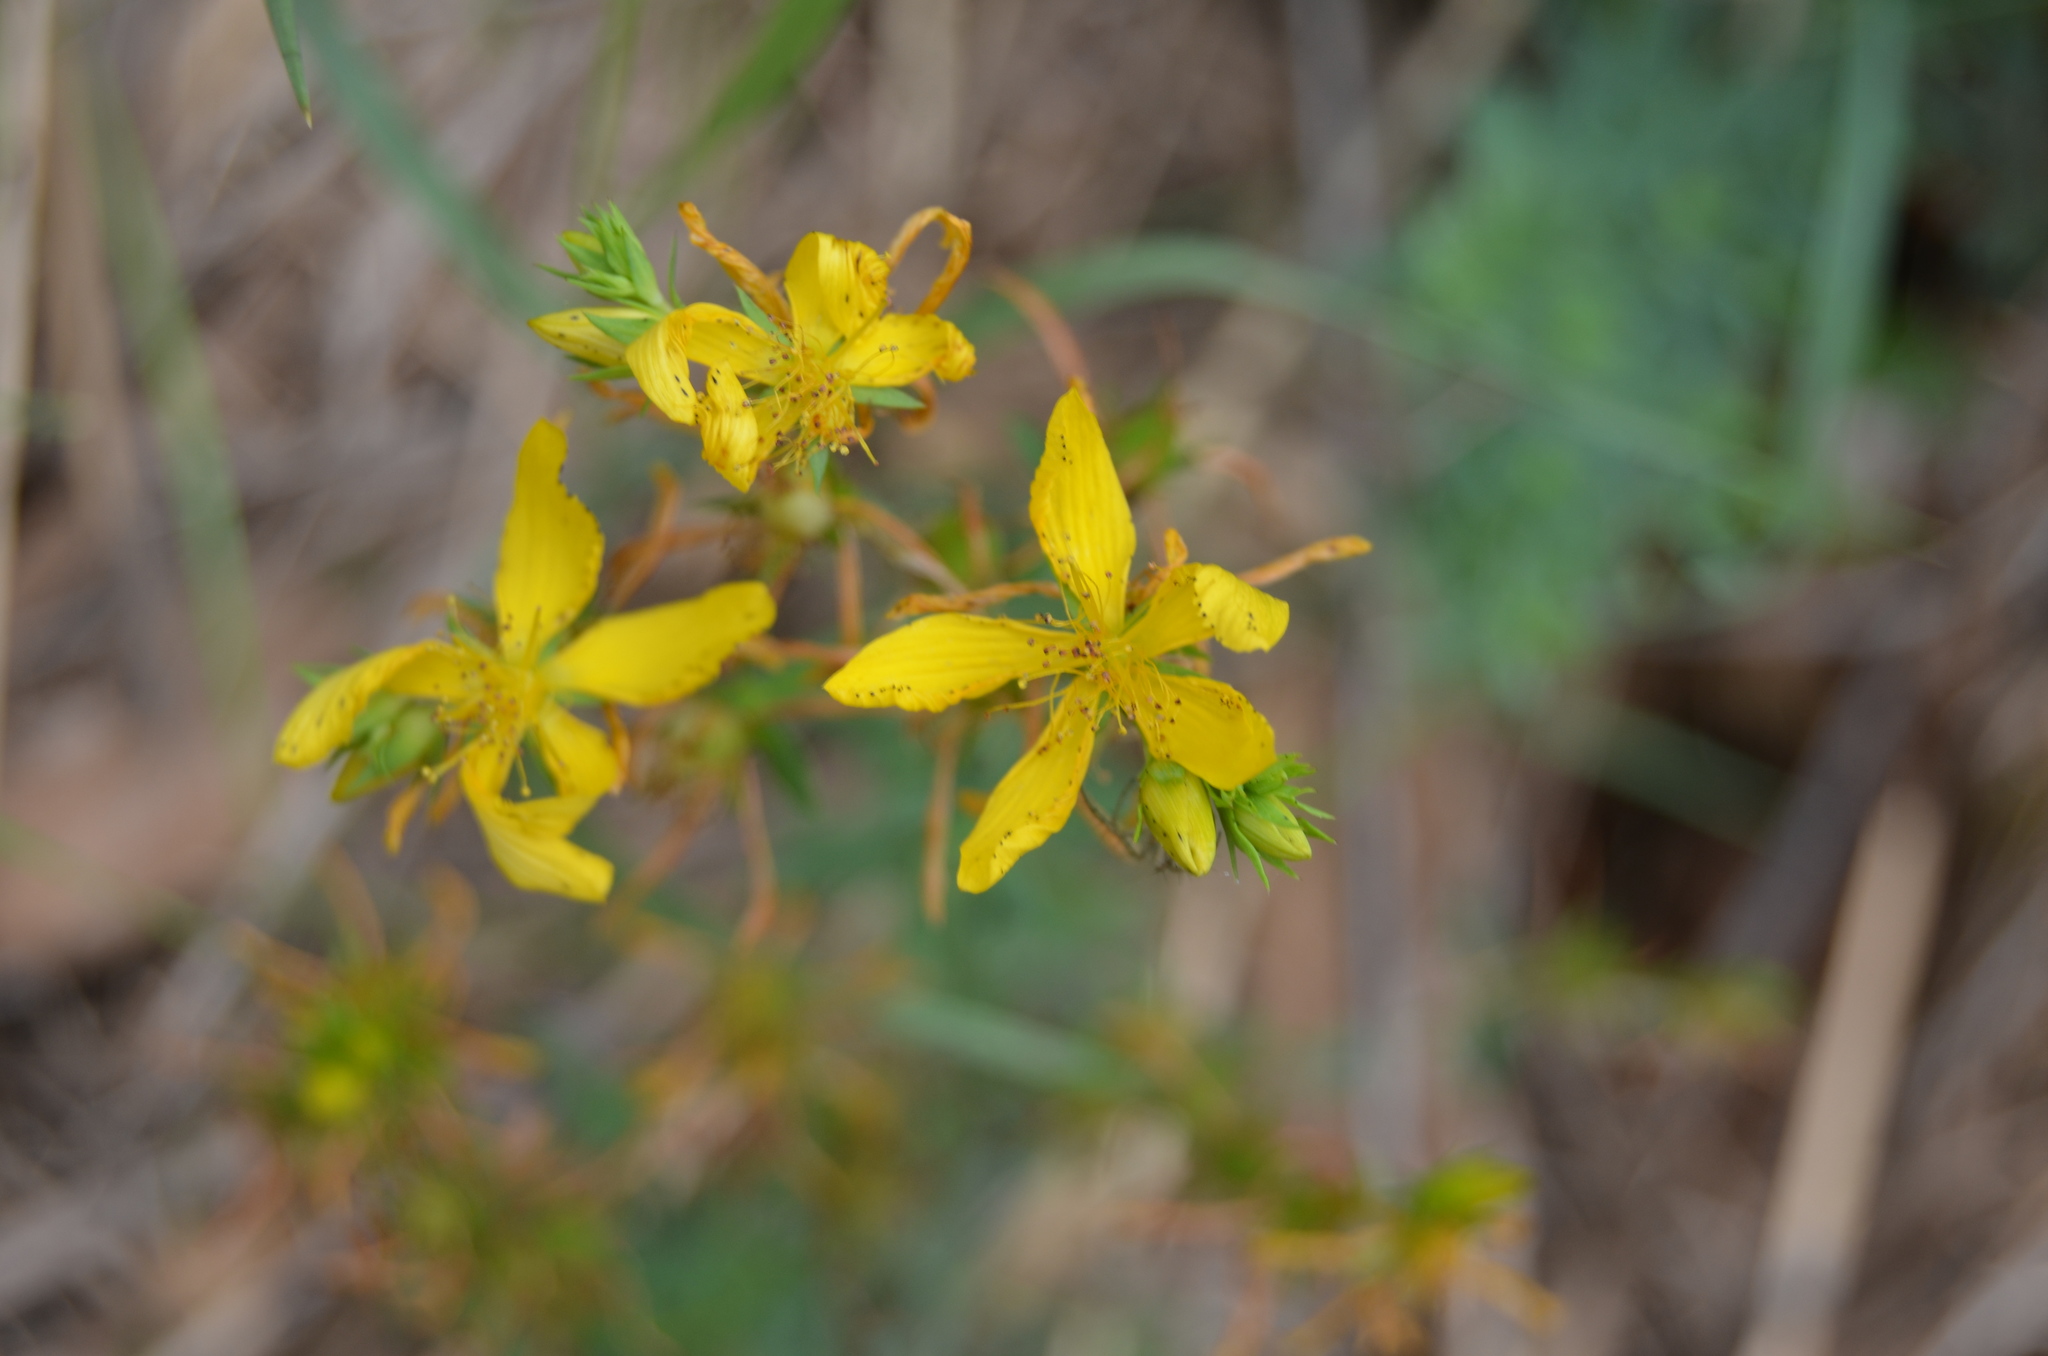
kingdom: Plantae
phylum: Tracheophyta
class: Magnoliopsida
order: Malpighiales
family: Hypericaceae
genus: Hypericum
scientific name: Hypericum perforatum
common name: Common st. johnswort
